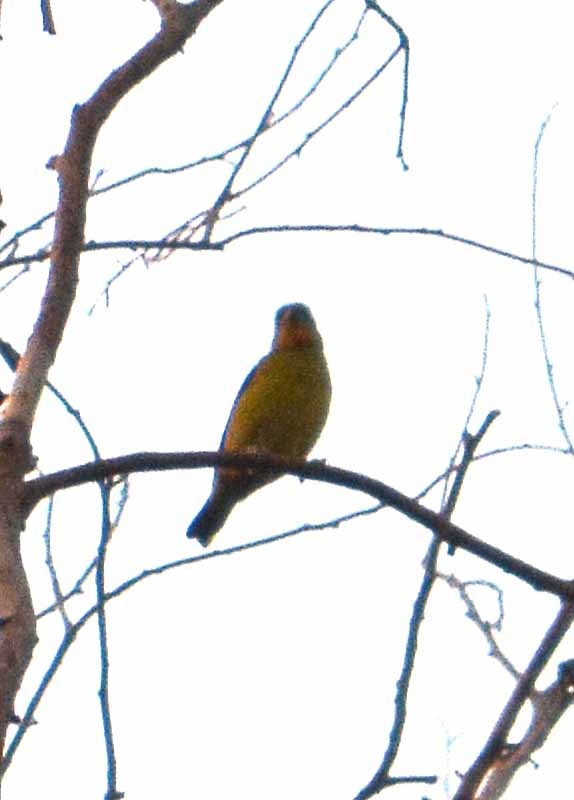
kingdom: Animalia
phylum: Chordata
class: Aves
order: Passeriformes
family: Cardinalidae
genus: Piranga
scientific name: Piranga ludoviciana
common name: Western tanager
